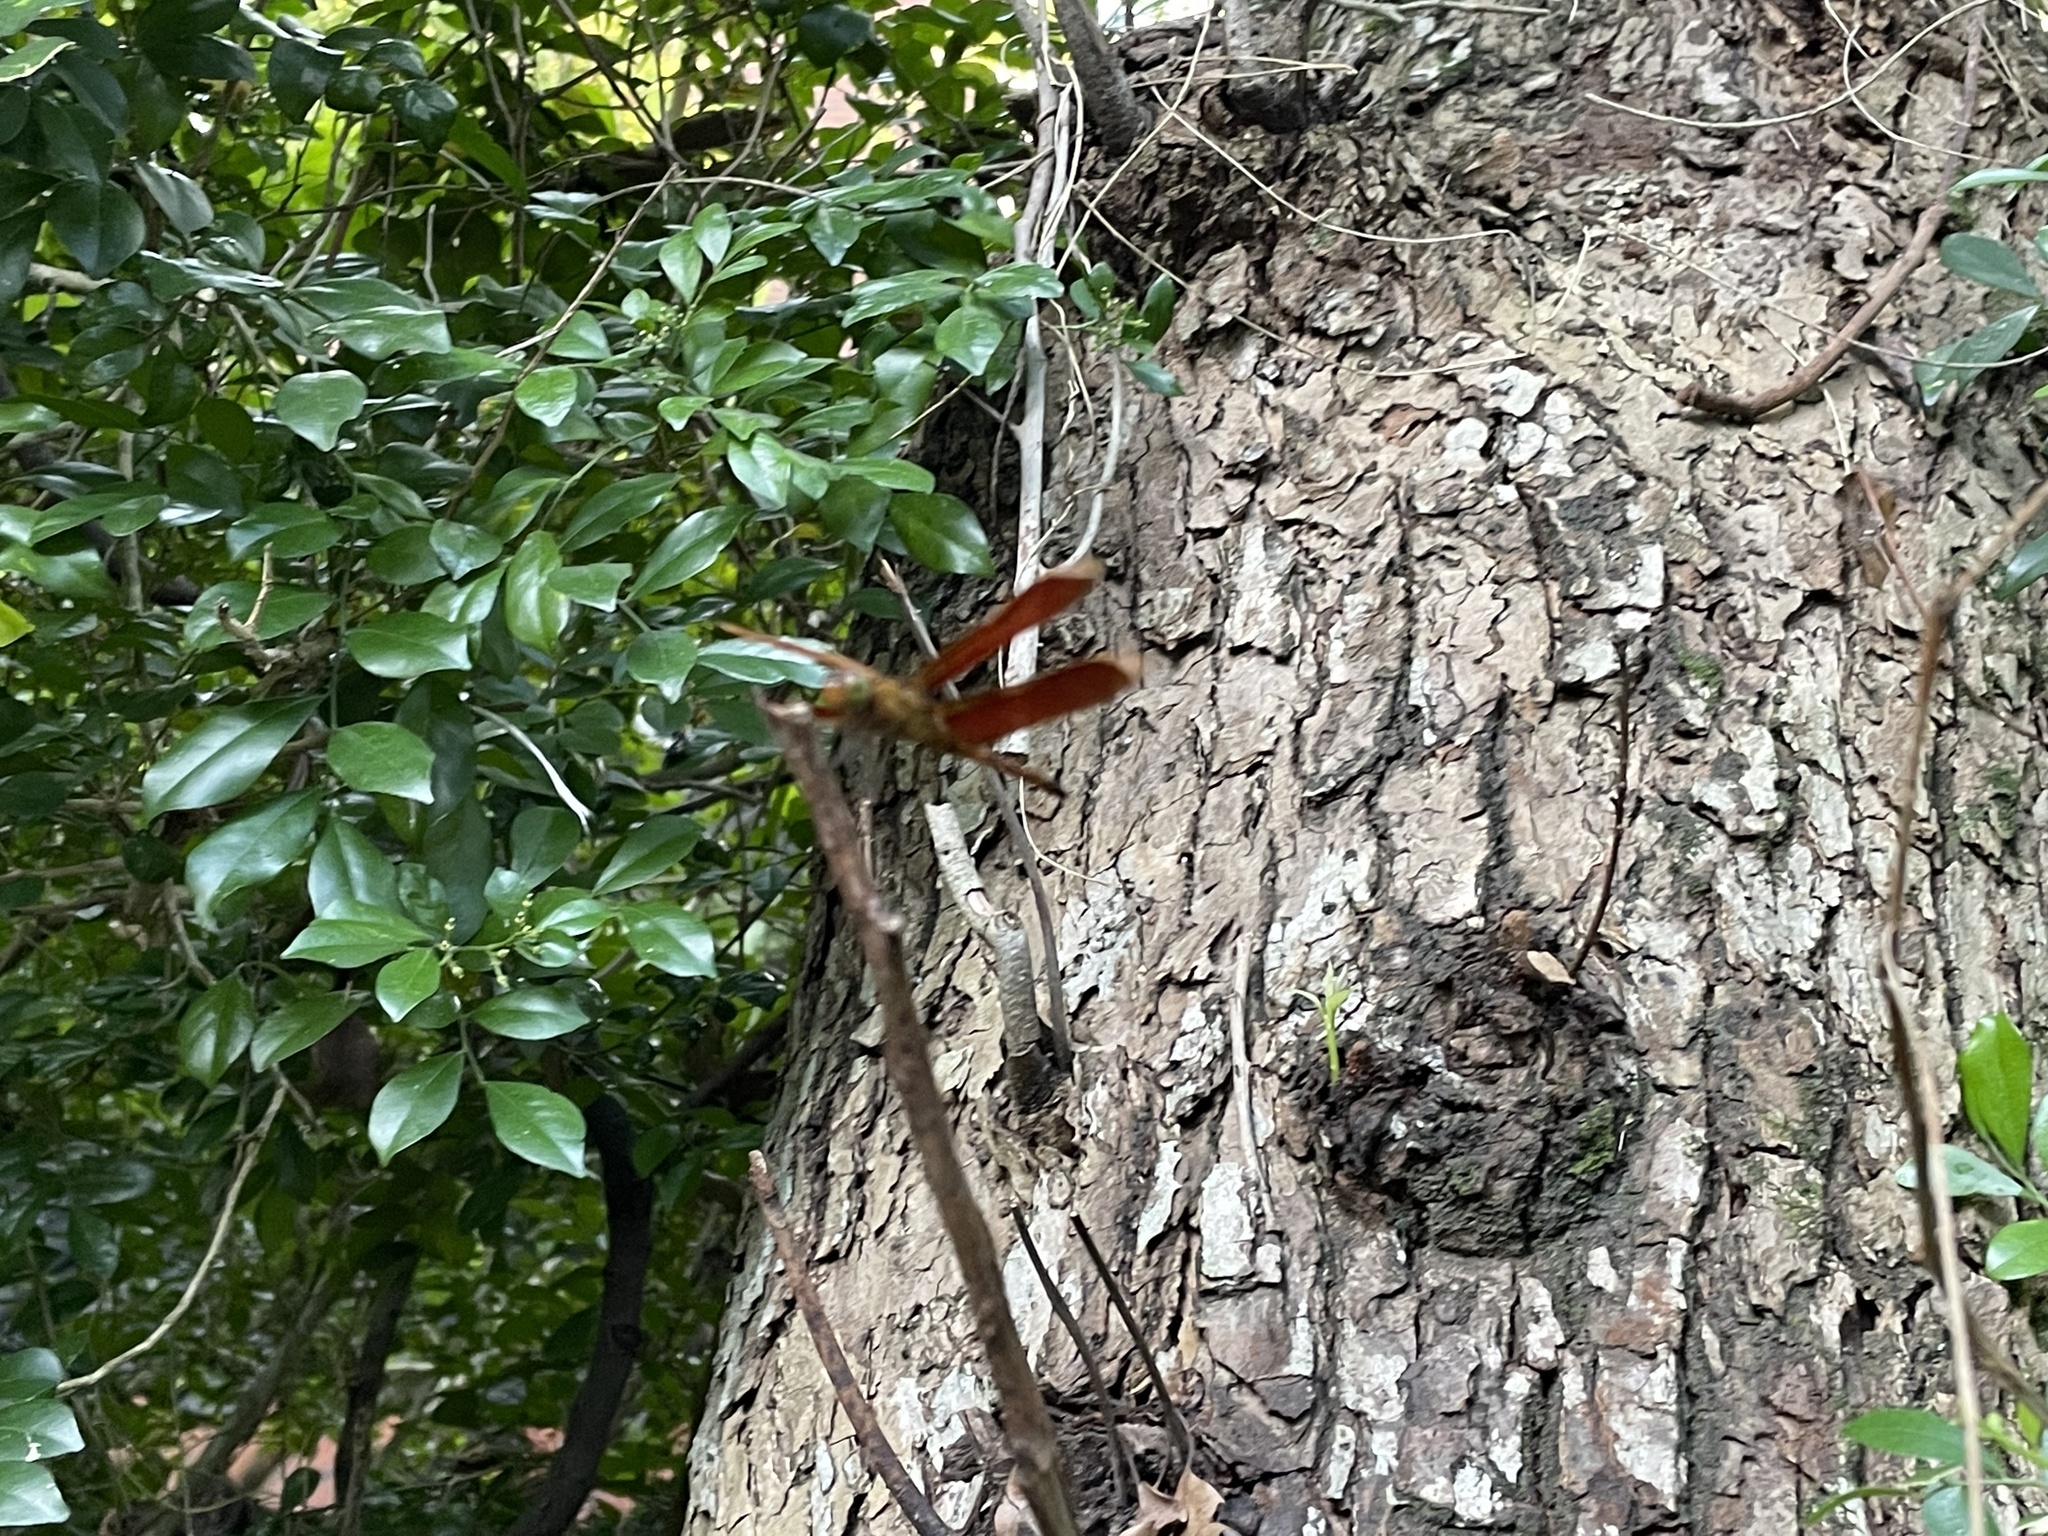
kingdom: Animalia
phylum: Arthropoda
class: Insecta
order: Odonata
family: Libellulidae
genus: Neurothemis
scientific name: Neurothemis taiwanensis
